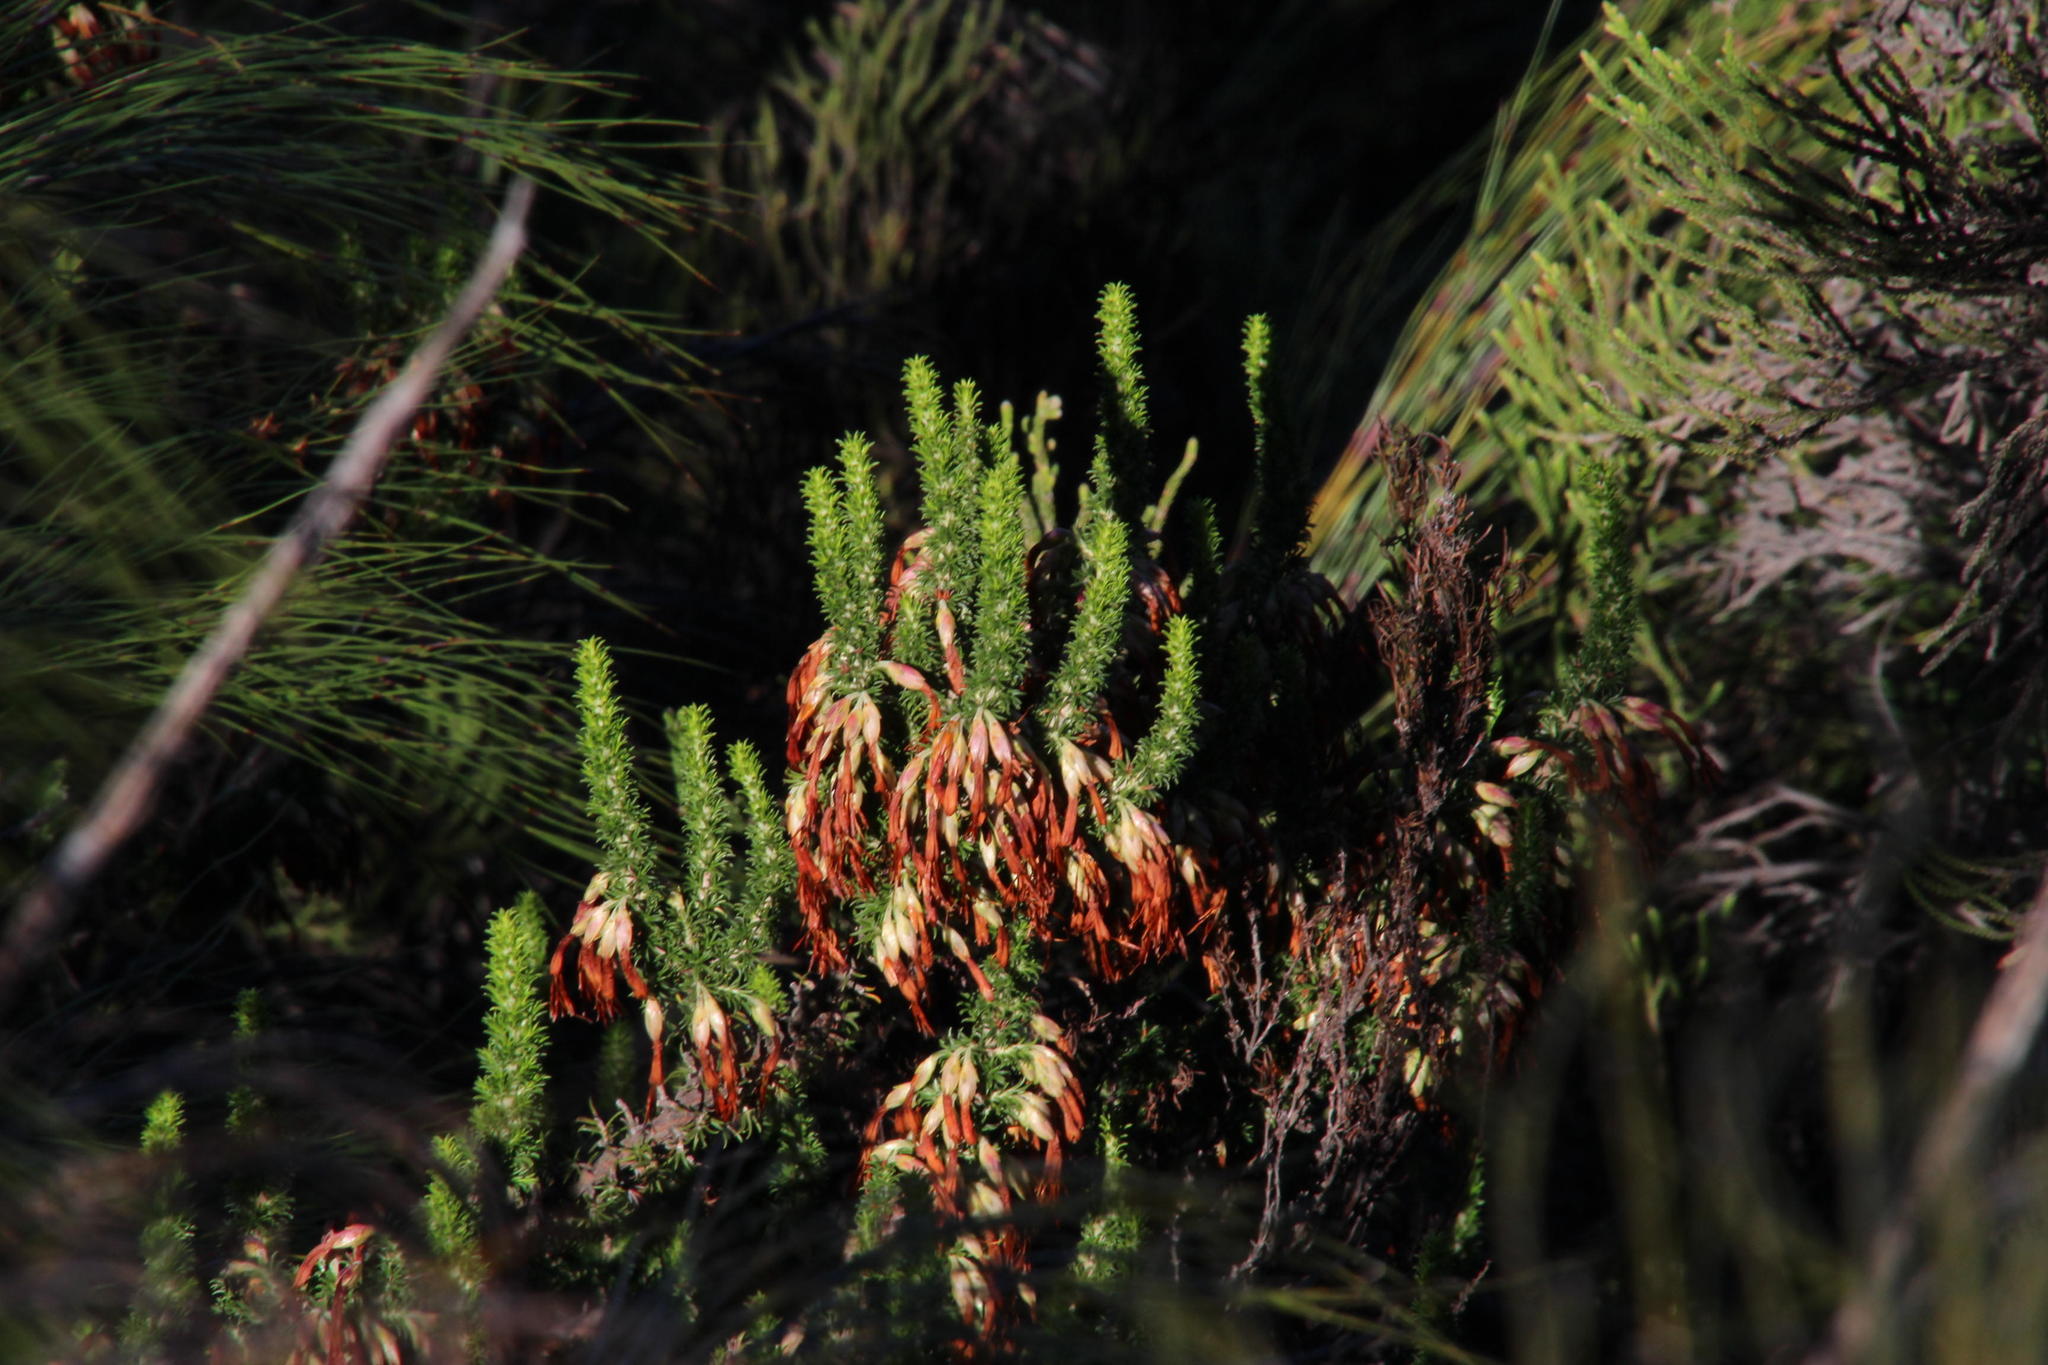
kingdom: Plantae
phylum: Tracheophyta
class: Magnoliopsida
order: Ericales
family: Ericaceae
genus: Erica
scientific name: Erica coccinea
